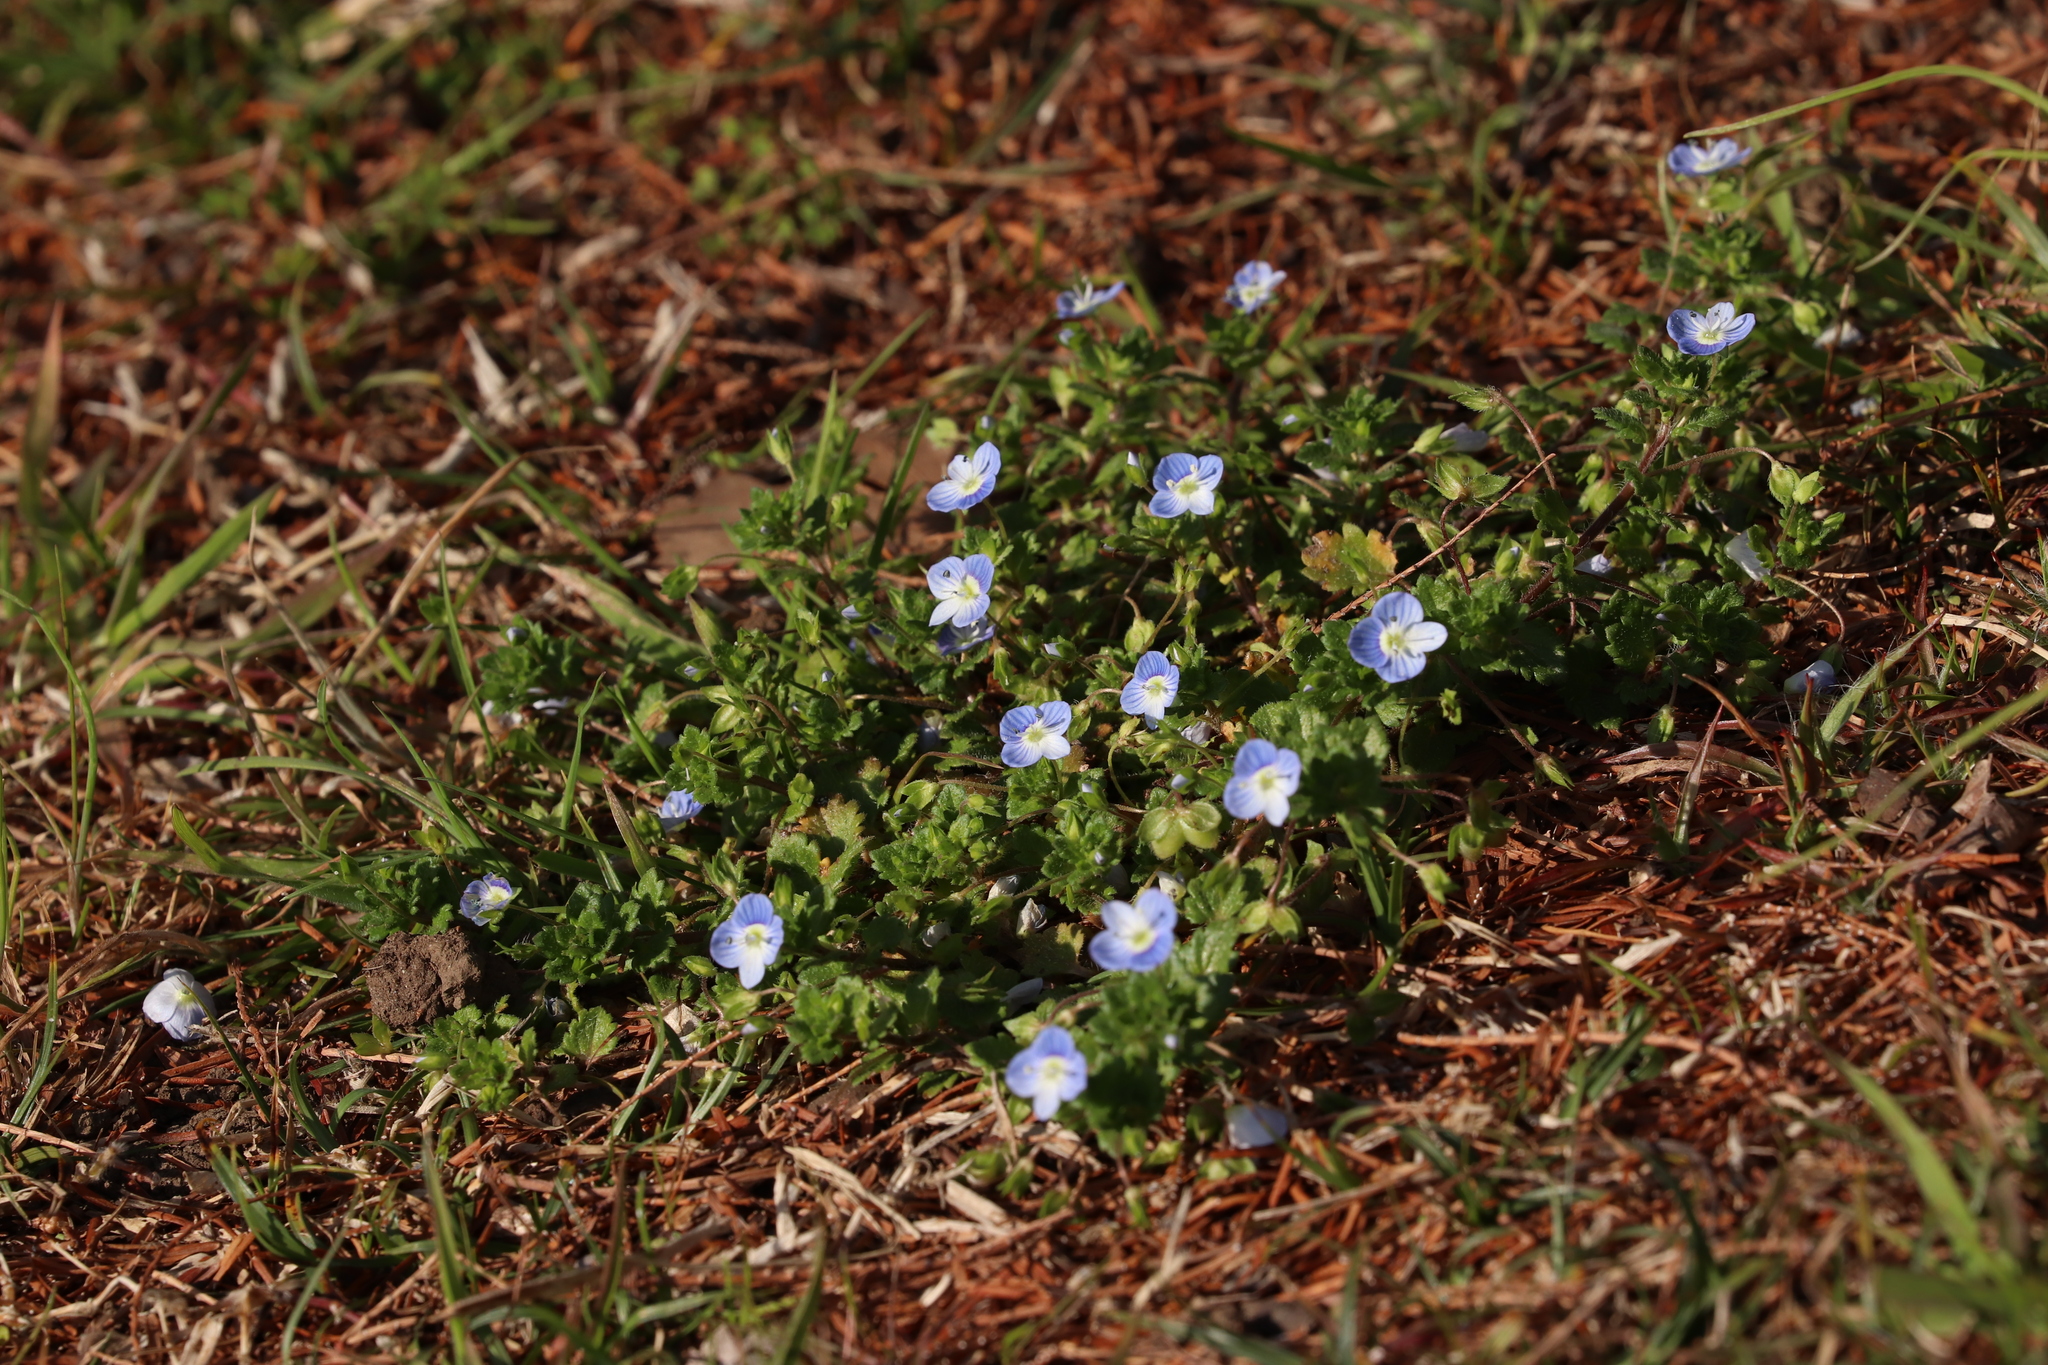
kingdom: Plantae
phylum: Tracheophyta
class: Magnoliopsida
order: Lamiales
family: Plantaginaceae
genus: Veronica
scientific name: Veronica persica
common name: Common field-speedwell
